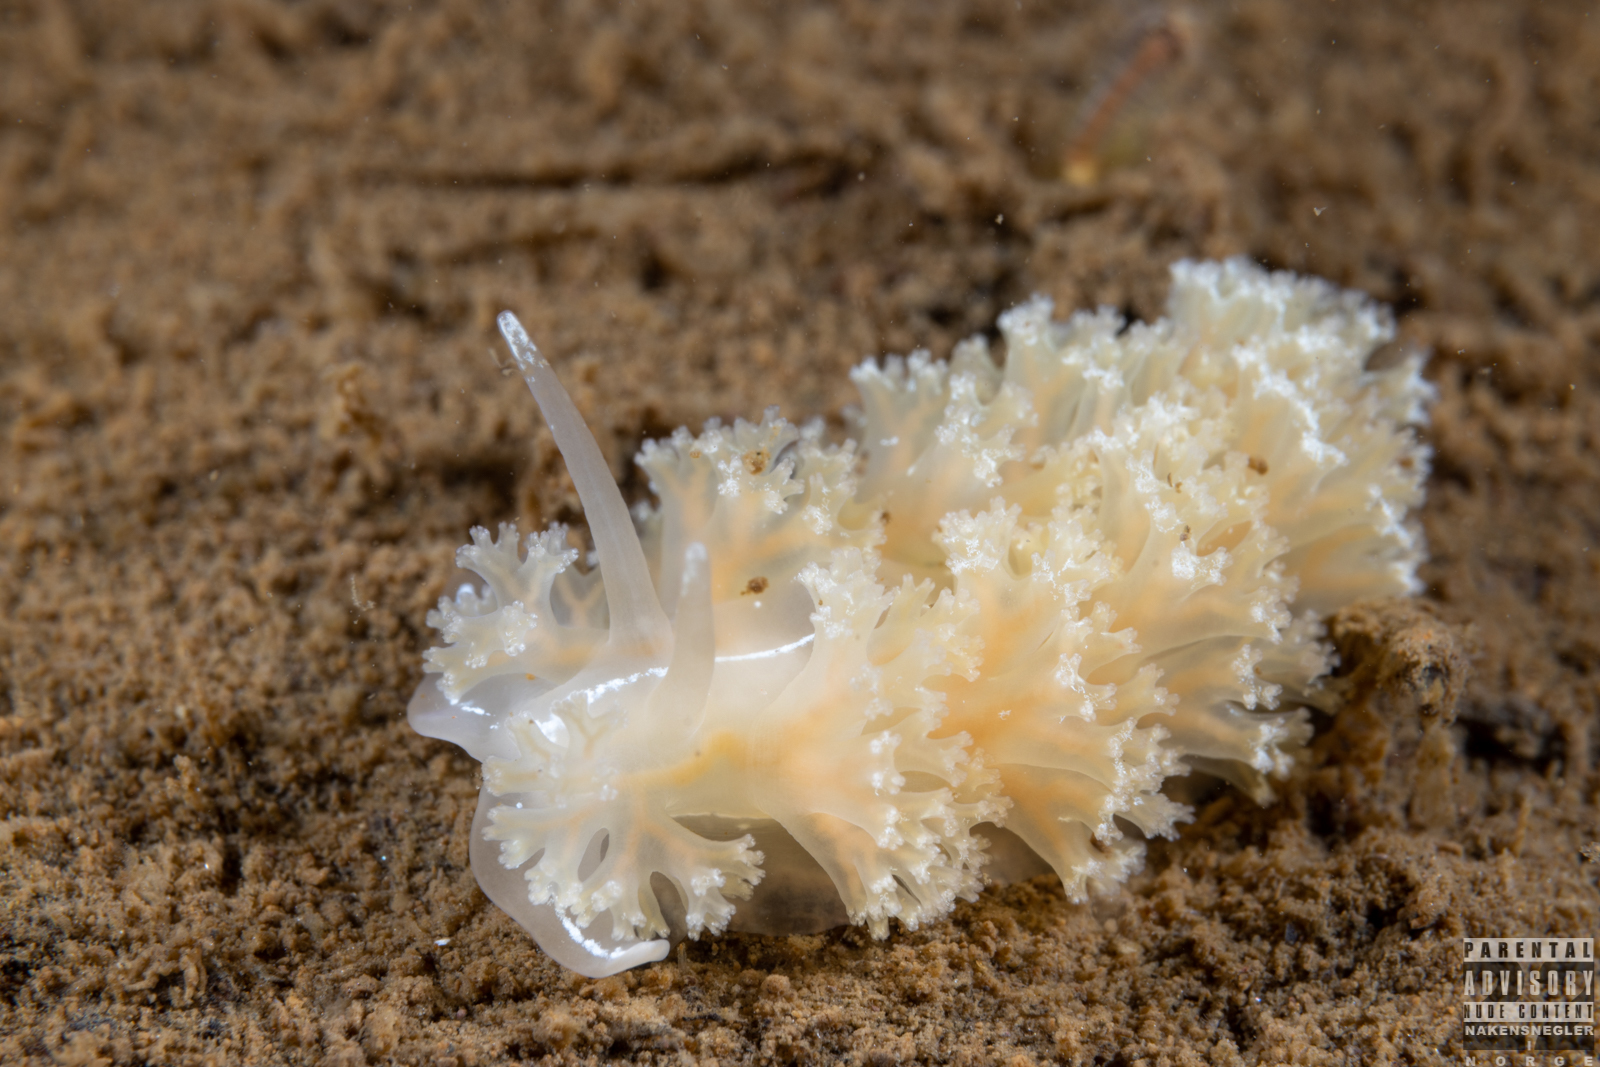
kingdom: Animalia
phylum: Mollusca
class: Gastropoda
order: Nudibranchia
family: Heroidae
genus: Hero
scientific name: Hero formosa
